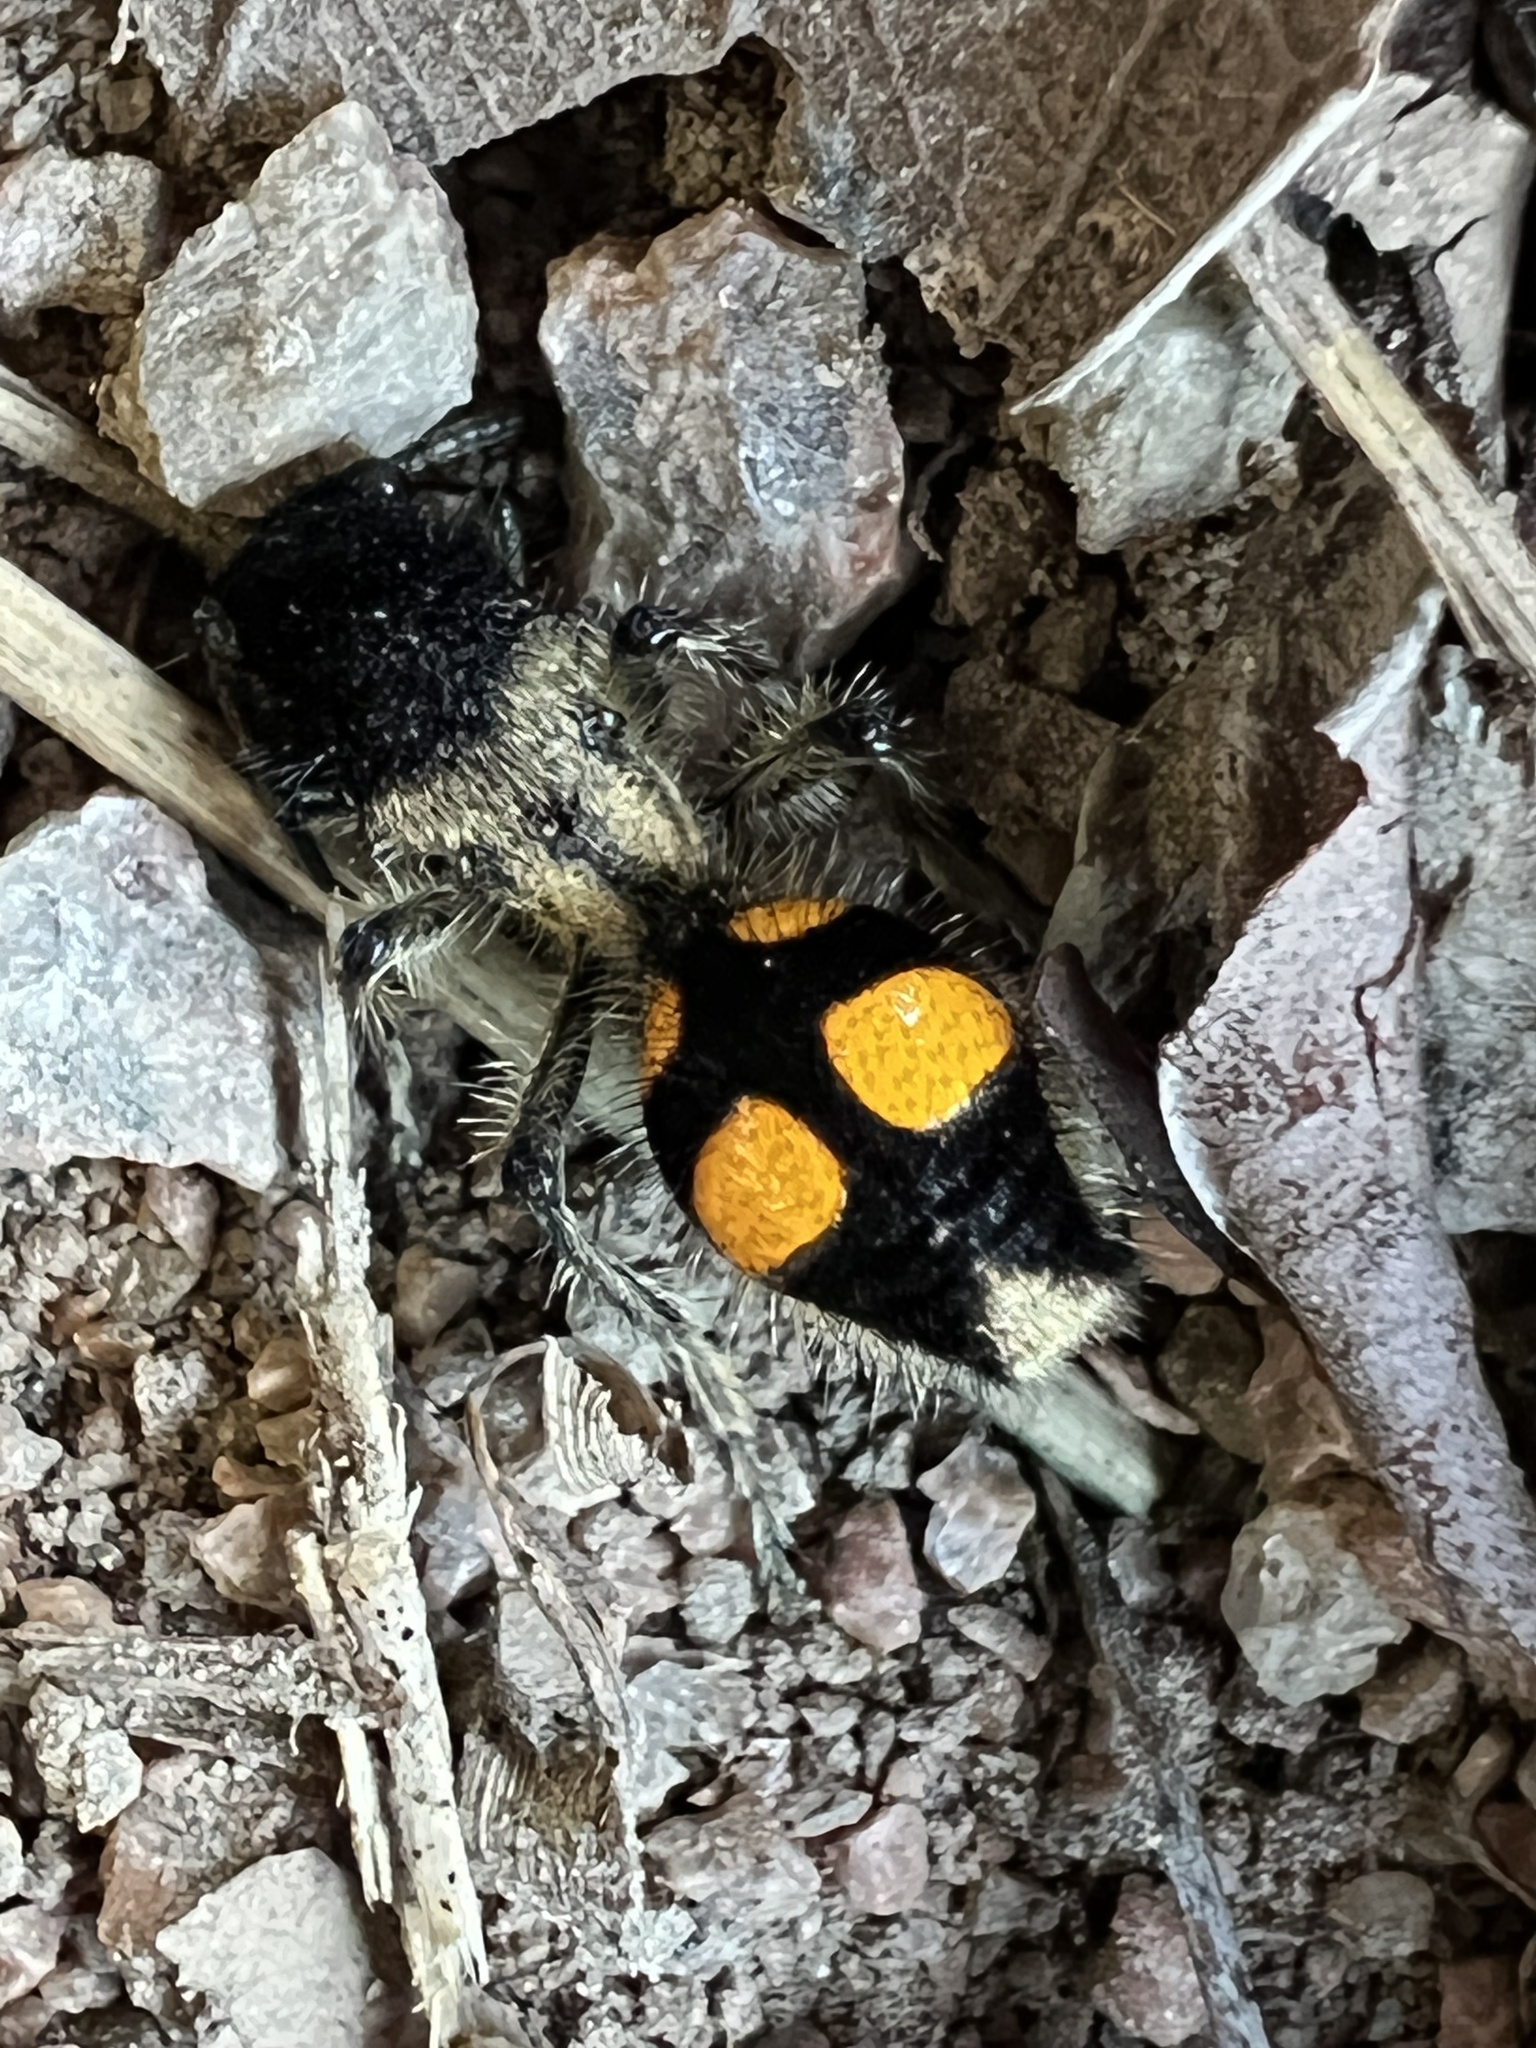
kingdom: Animalia
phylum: Arthropoda
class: Insecta
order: Hymenoptera
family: Mutillidae
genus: Traumatomutilla
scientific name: Traumatomutilla
